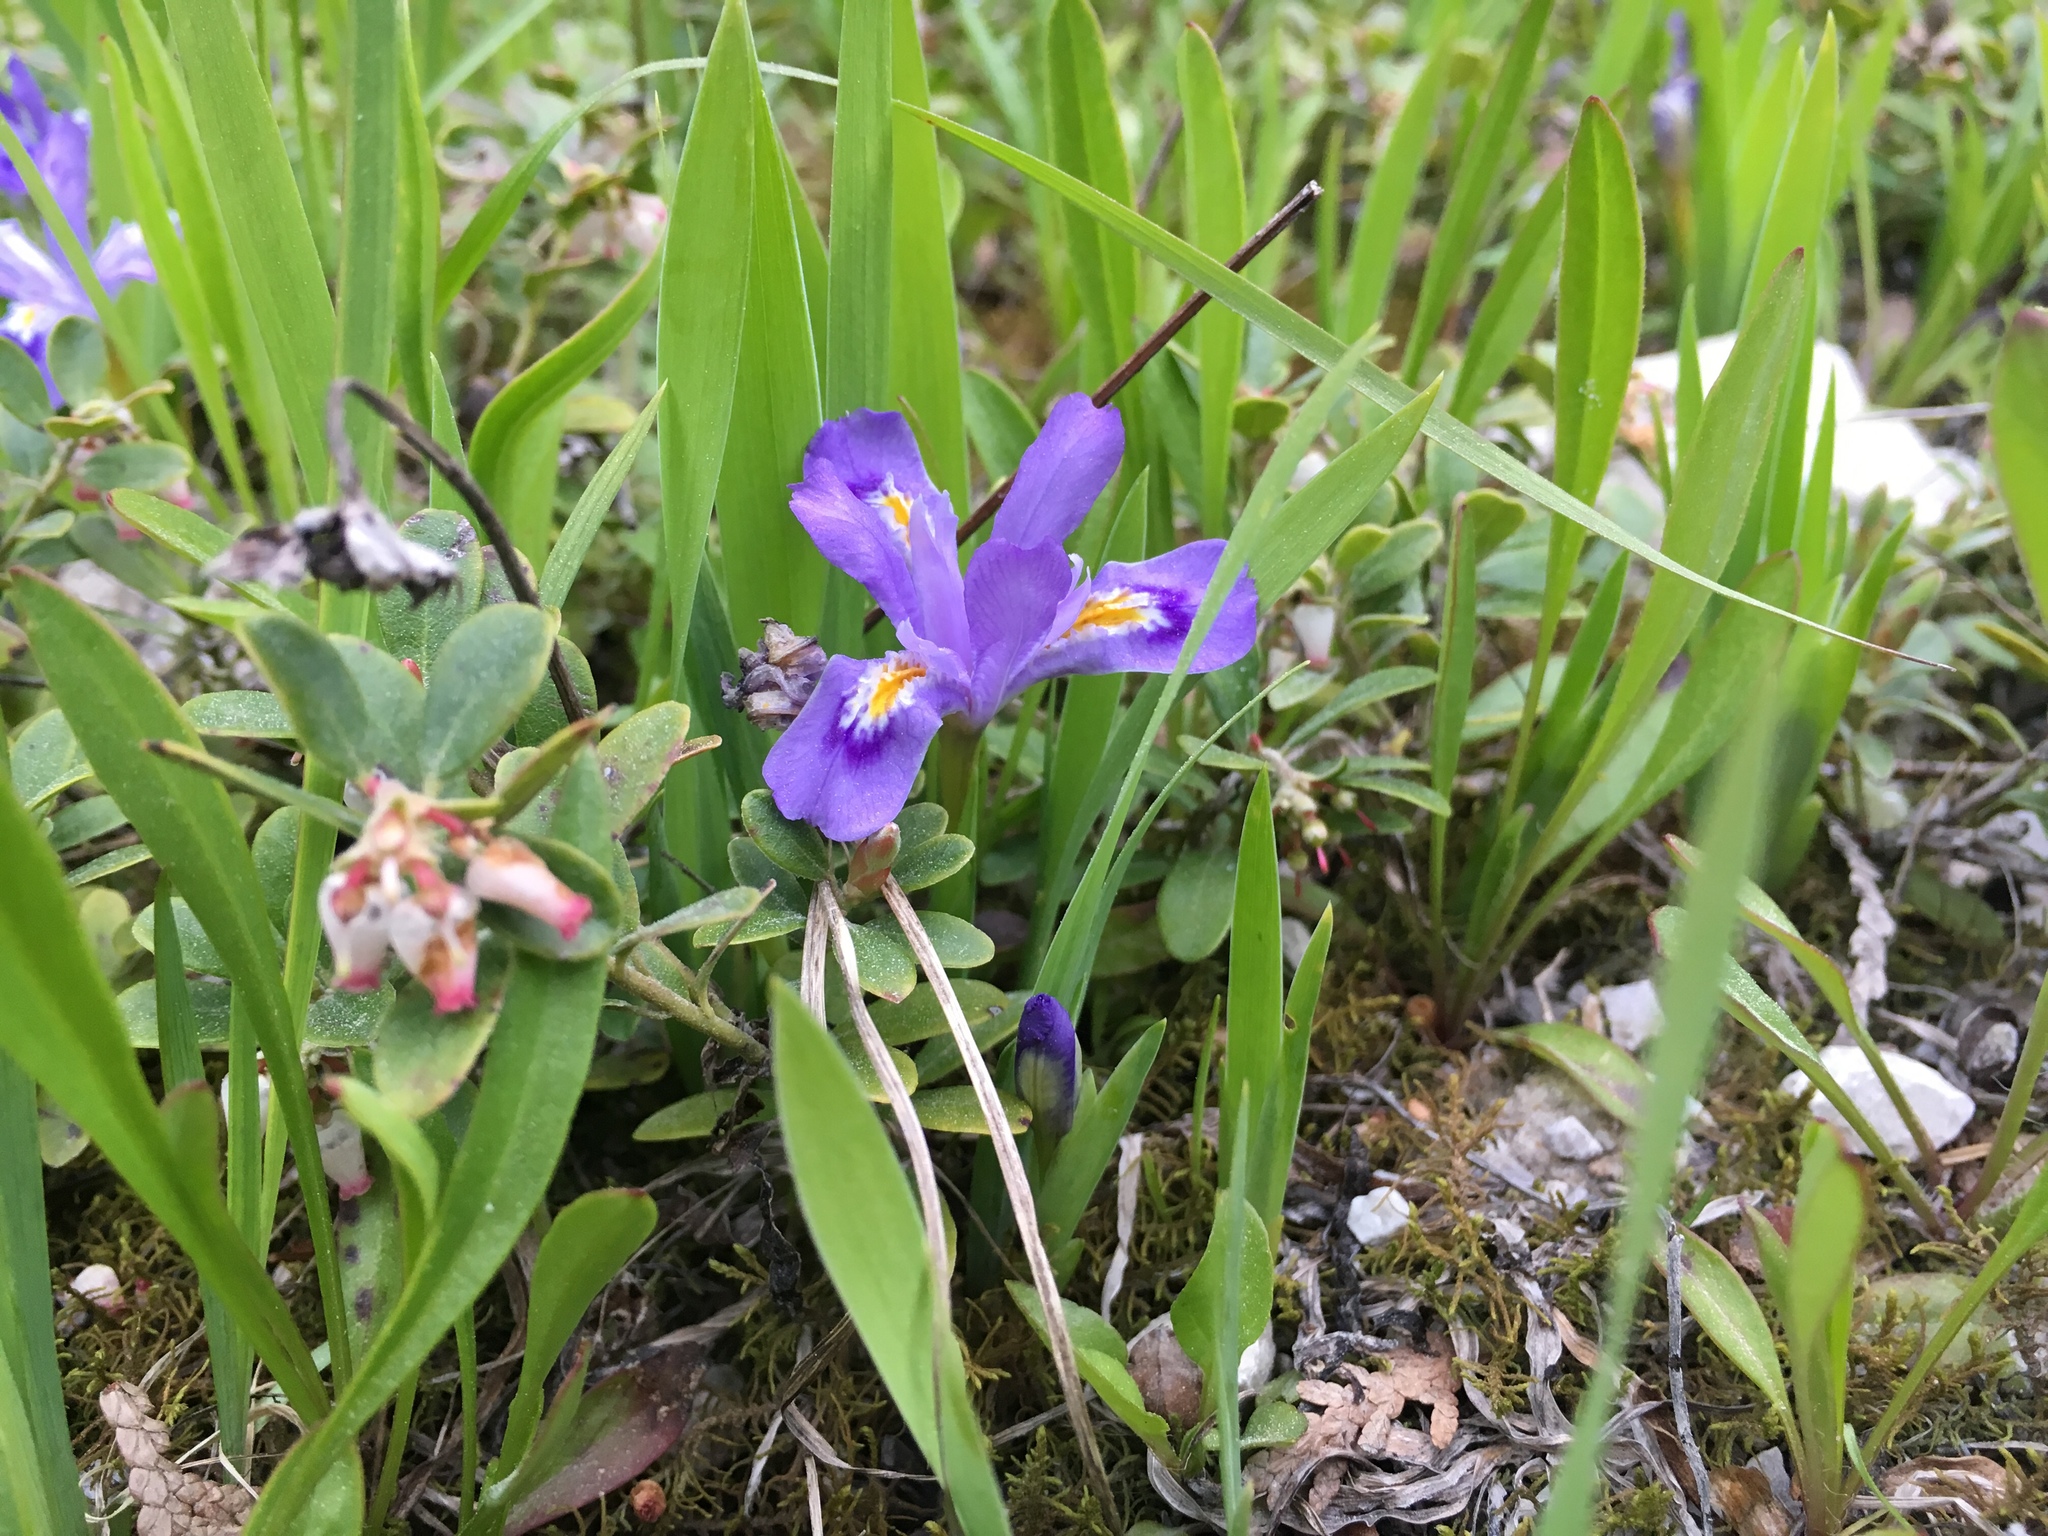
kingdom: Plantae
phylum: Tracheophyta
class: Liliopsida
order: Asparagales
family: Iridaceae
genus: Iris
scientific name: Iris lacustris
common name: Dwarf lake iris
